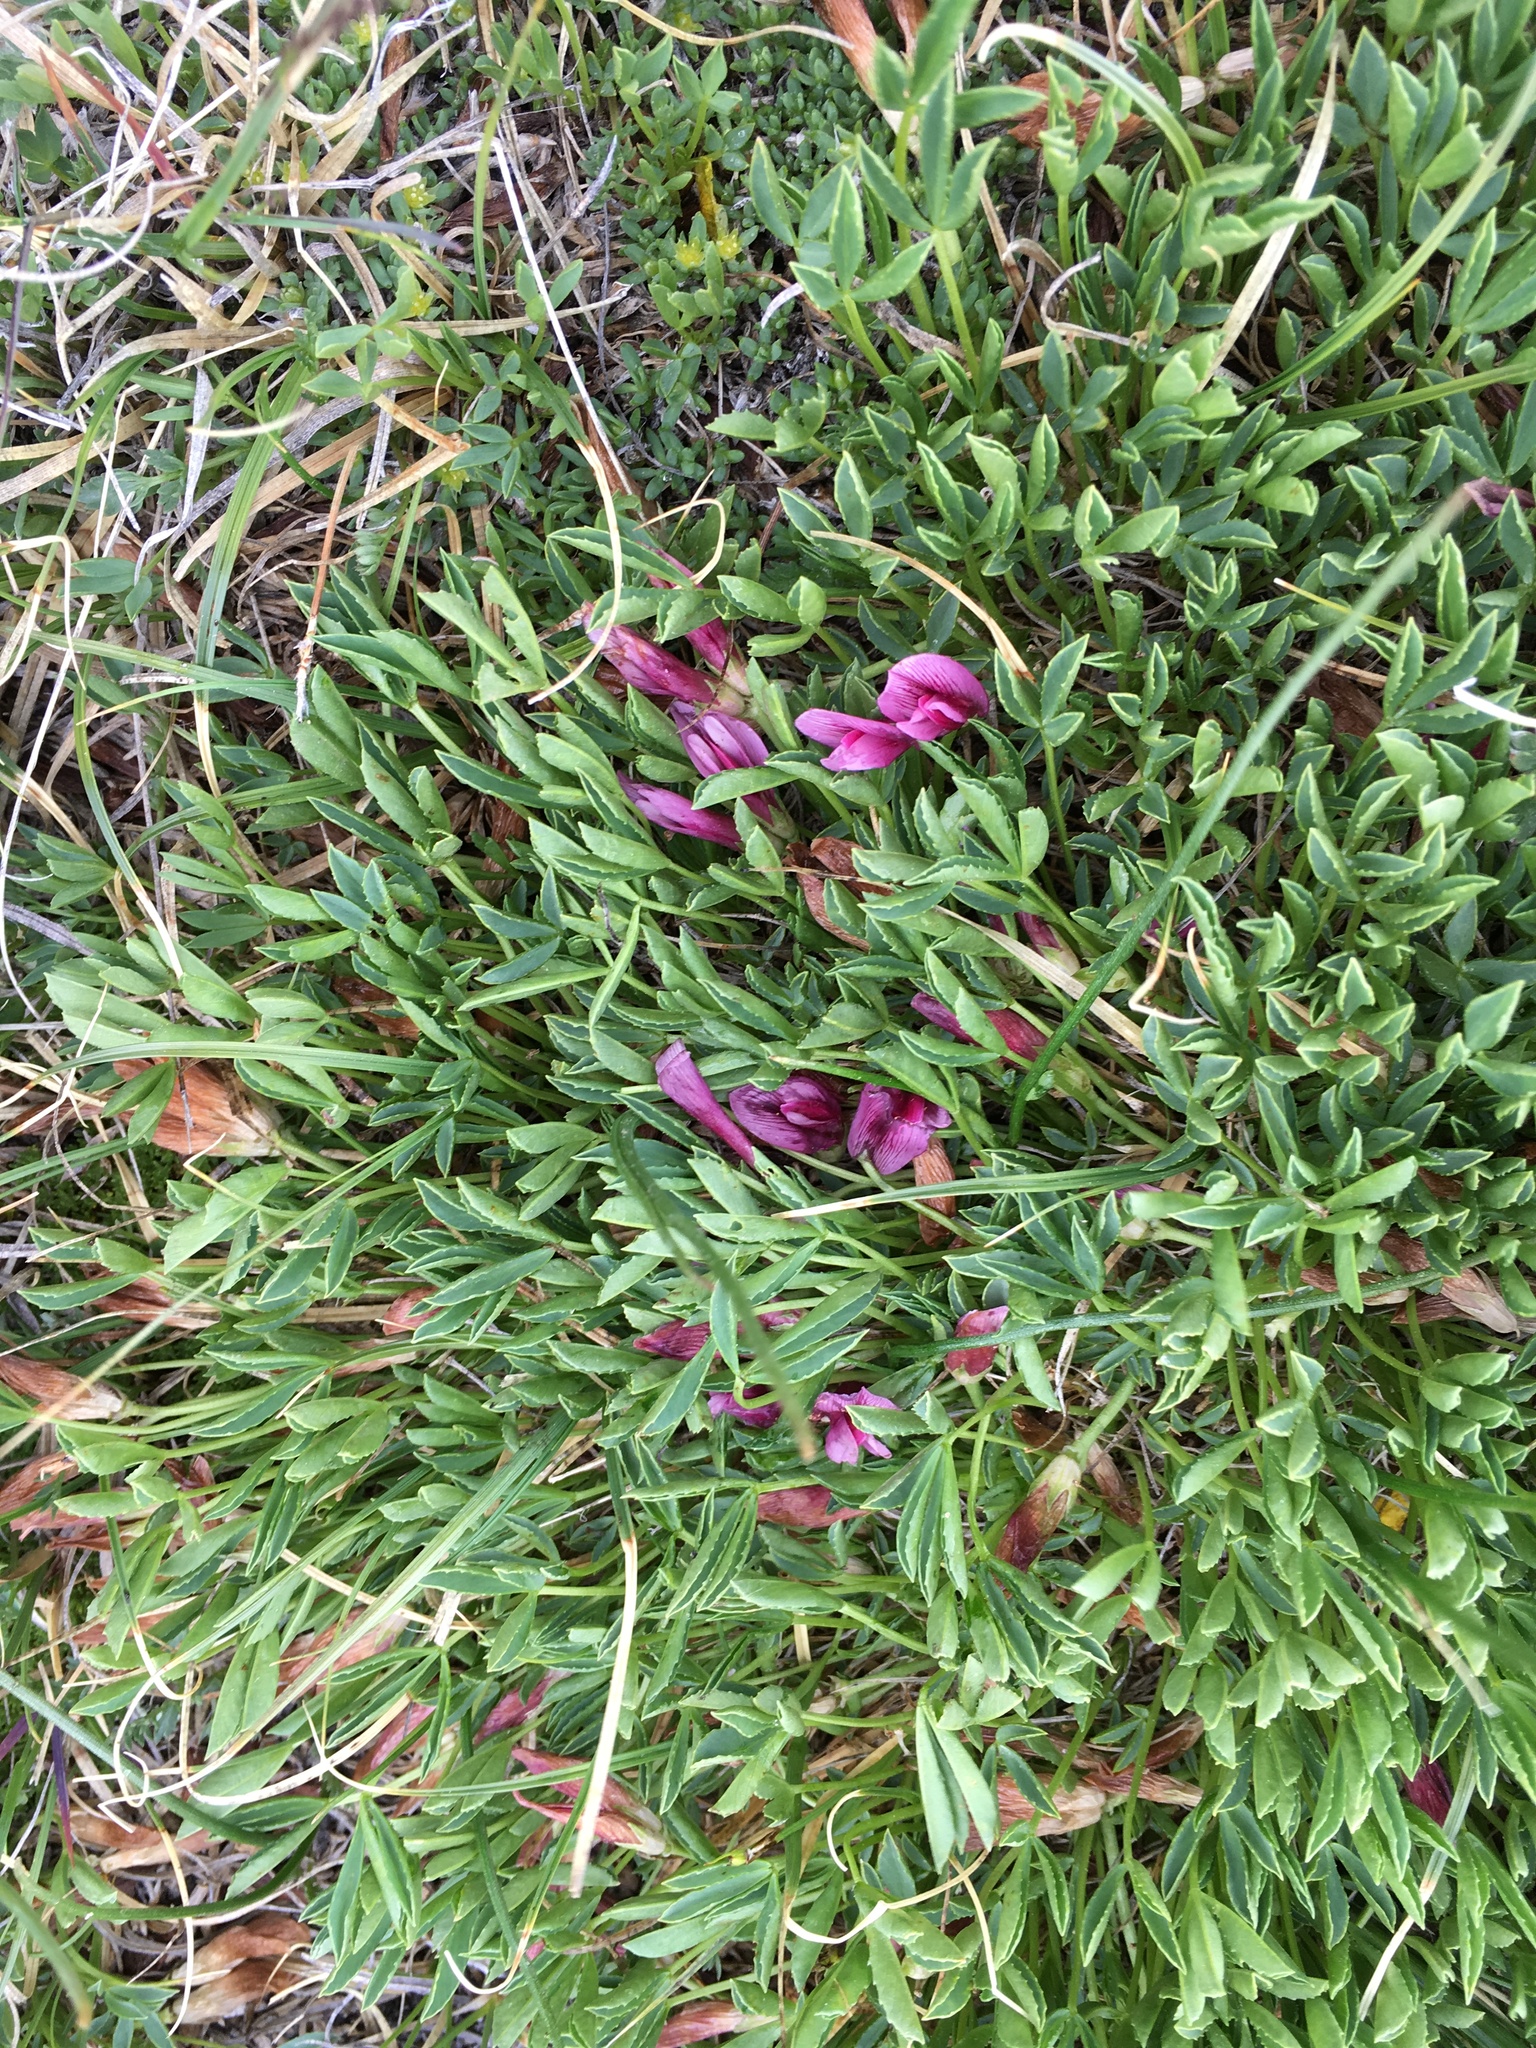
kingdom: Plantae
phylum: Tracheophyta
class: Magnoliopsida
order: Fabales
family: Fabaceae
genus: Trifolium
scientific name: Trifolium nanum
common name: Tundra clover
